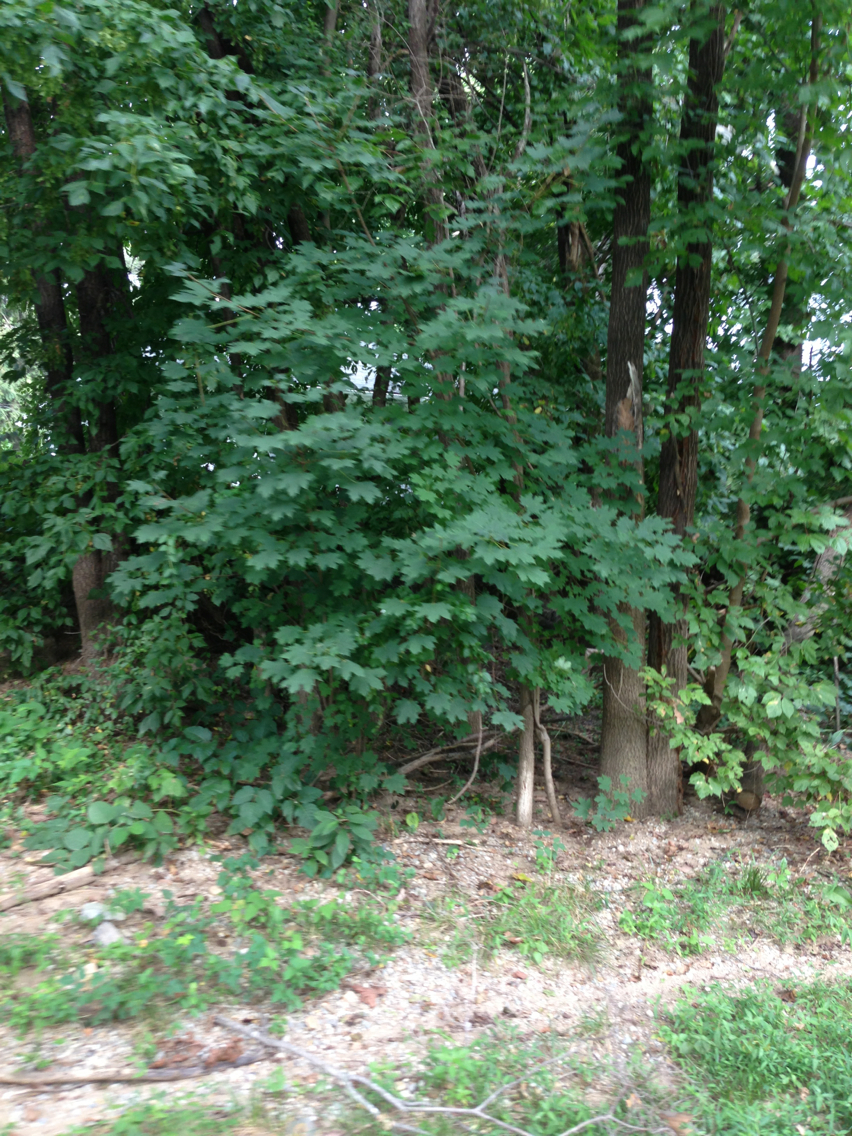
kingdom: Plantae
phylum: Tracheophyta
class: Magnoliopsida
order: Sapindales
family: Sapindaceae
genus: Acer
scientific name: Acer platanoides
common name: Norway maple
